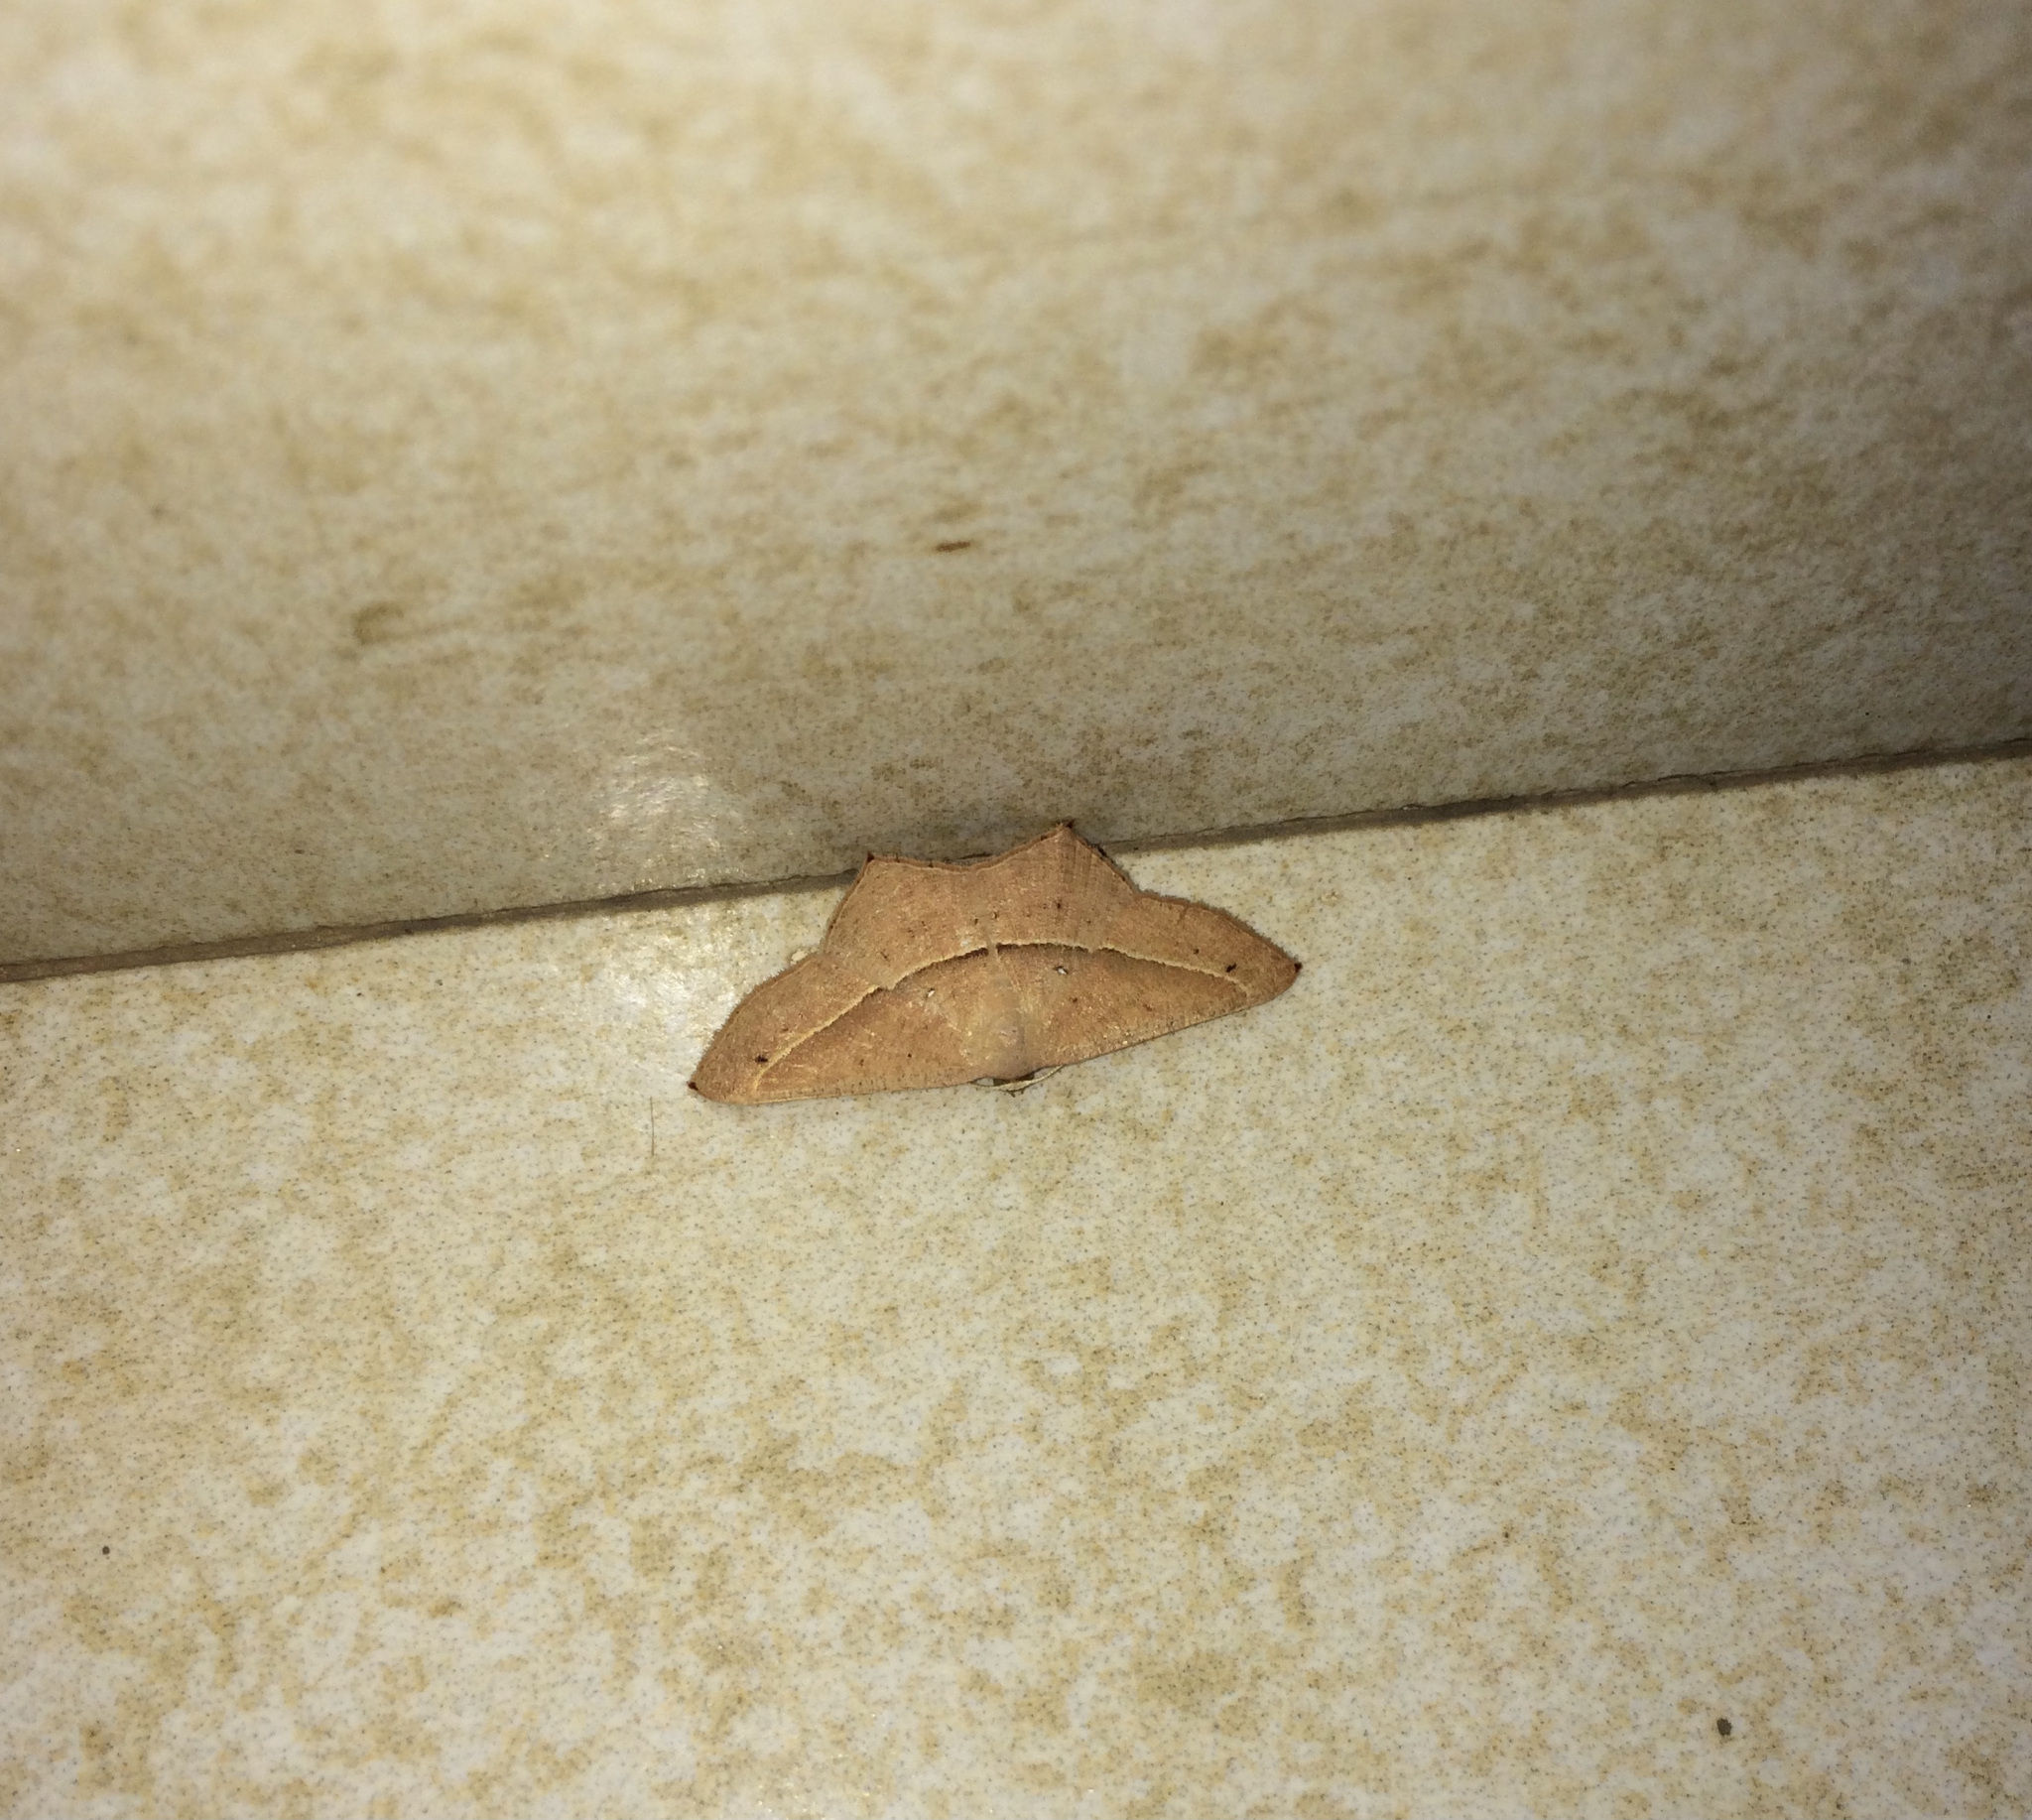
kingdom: Animalia
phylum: Arthropoda
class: Insecta
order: Lepidoptera
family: Geometridae
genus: Traminda
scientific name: Traminda mundissima
